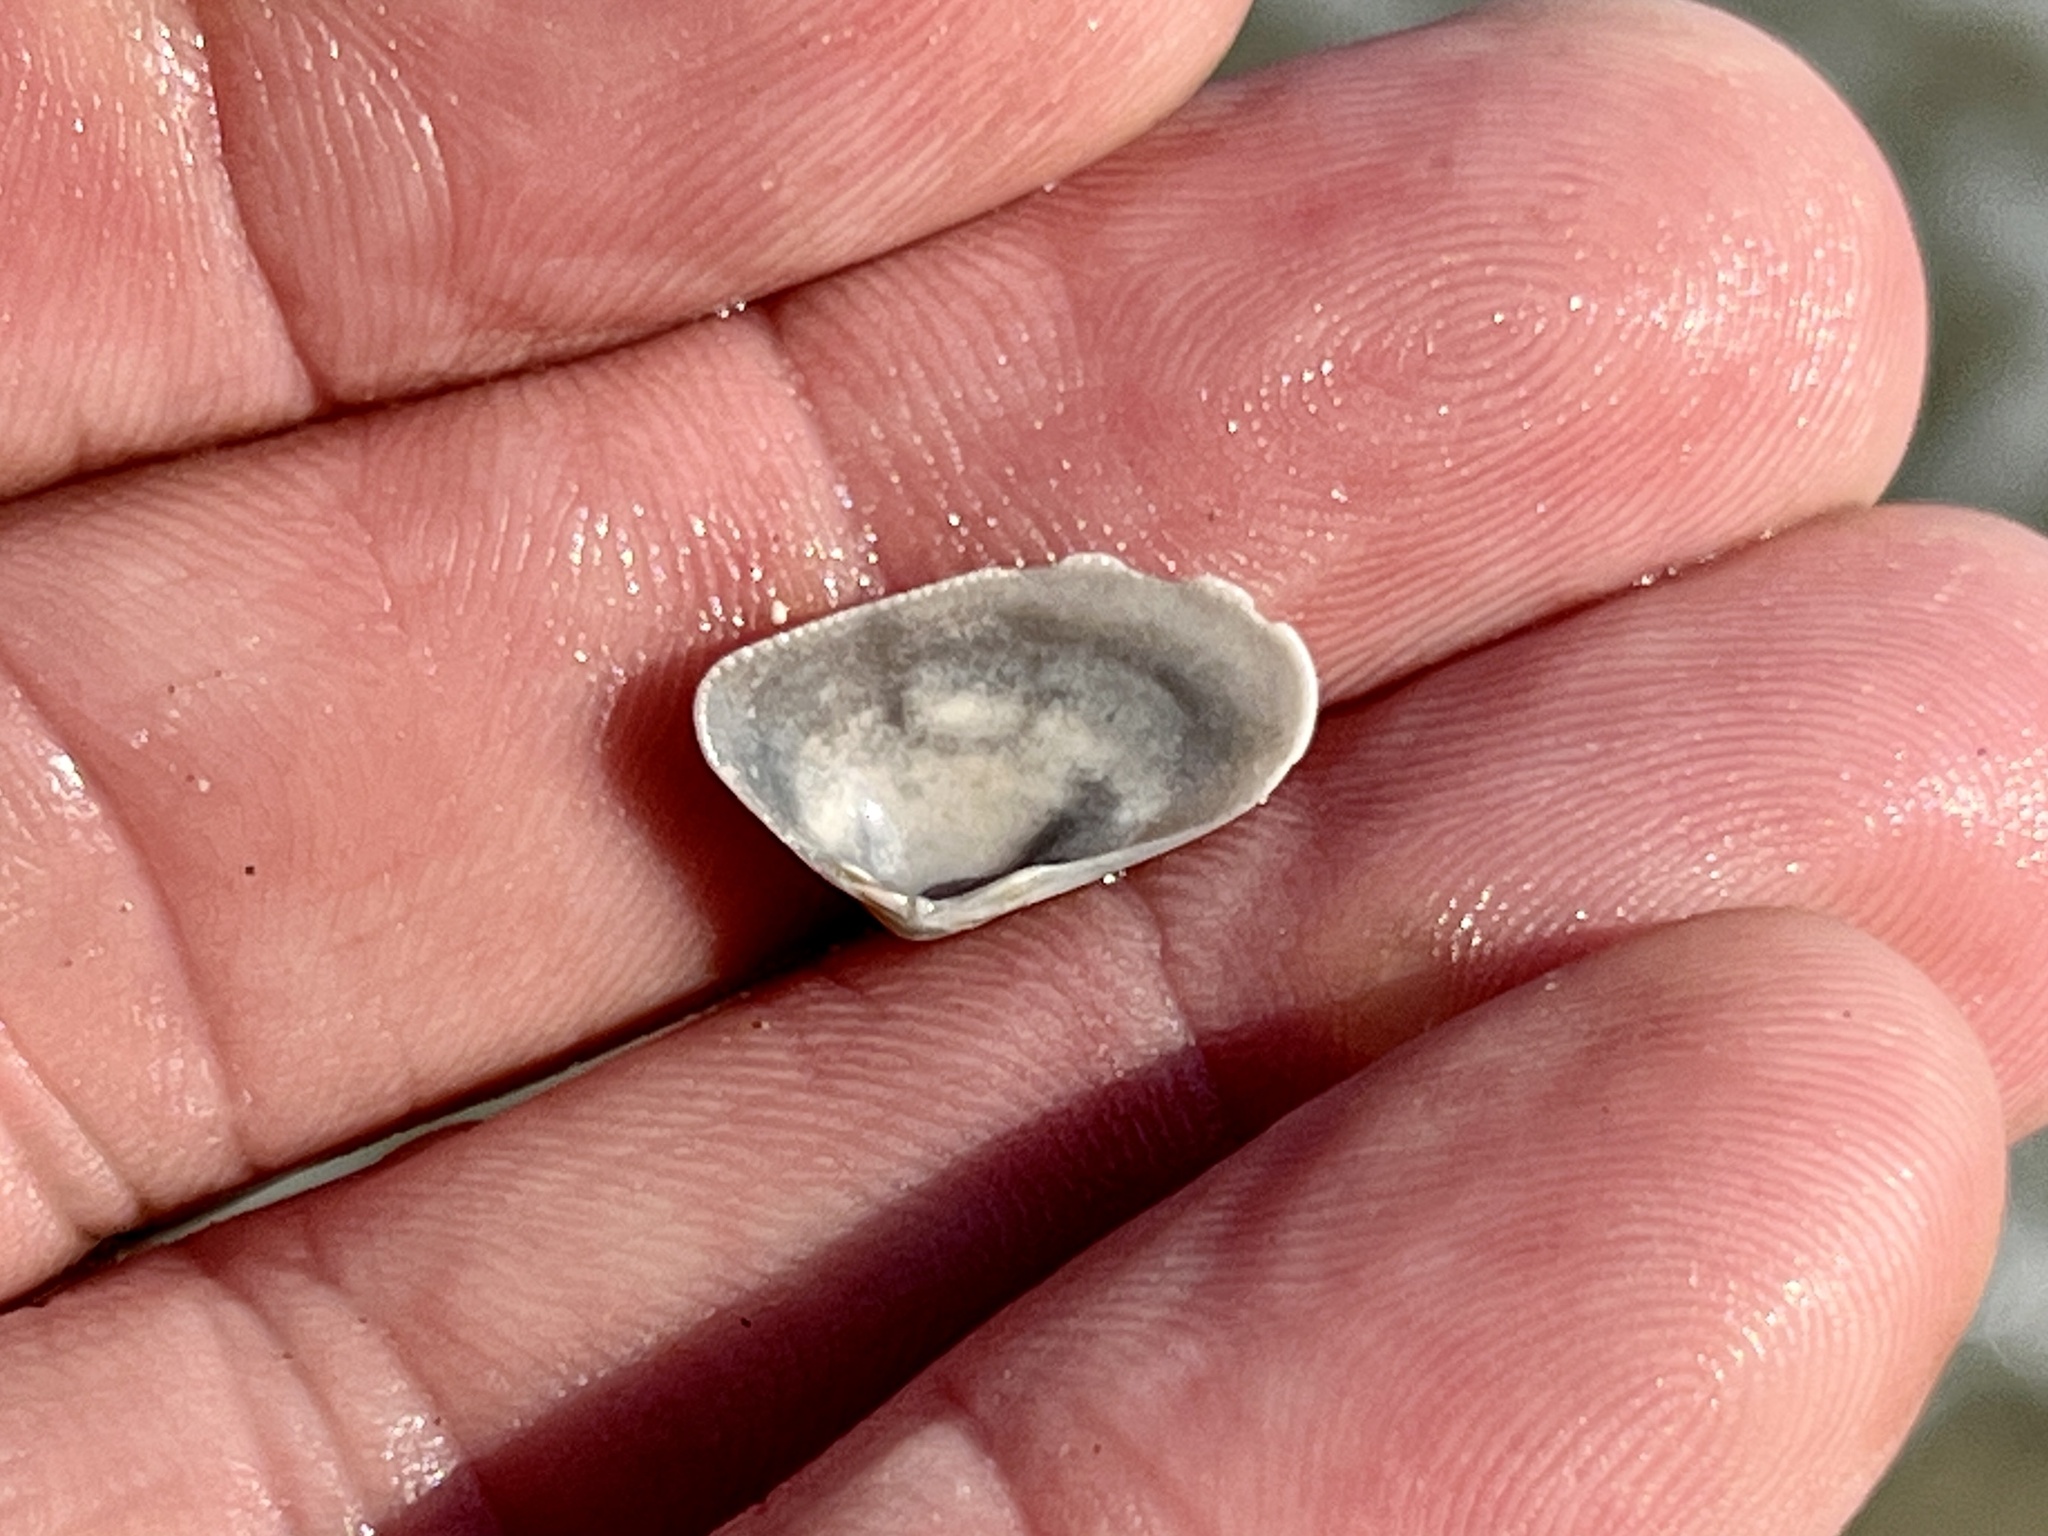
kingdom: Animalia
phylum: Mollusca
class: Bivalvia
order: Cardiida
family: Donacidae
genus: Donax
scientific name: Donax variabilis
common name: Butterfly shell
